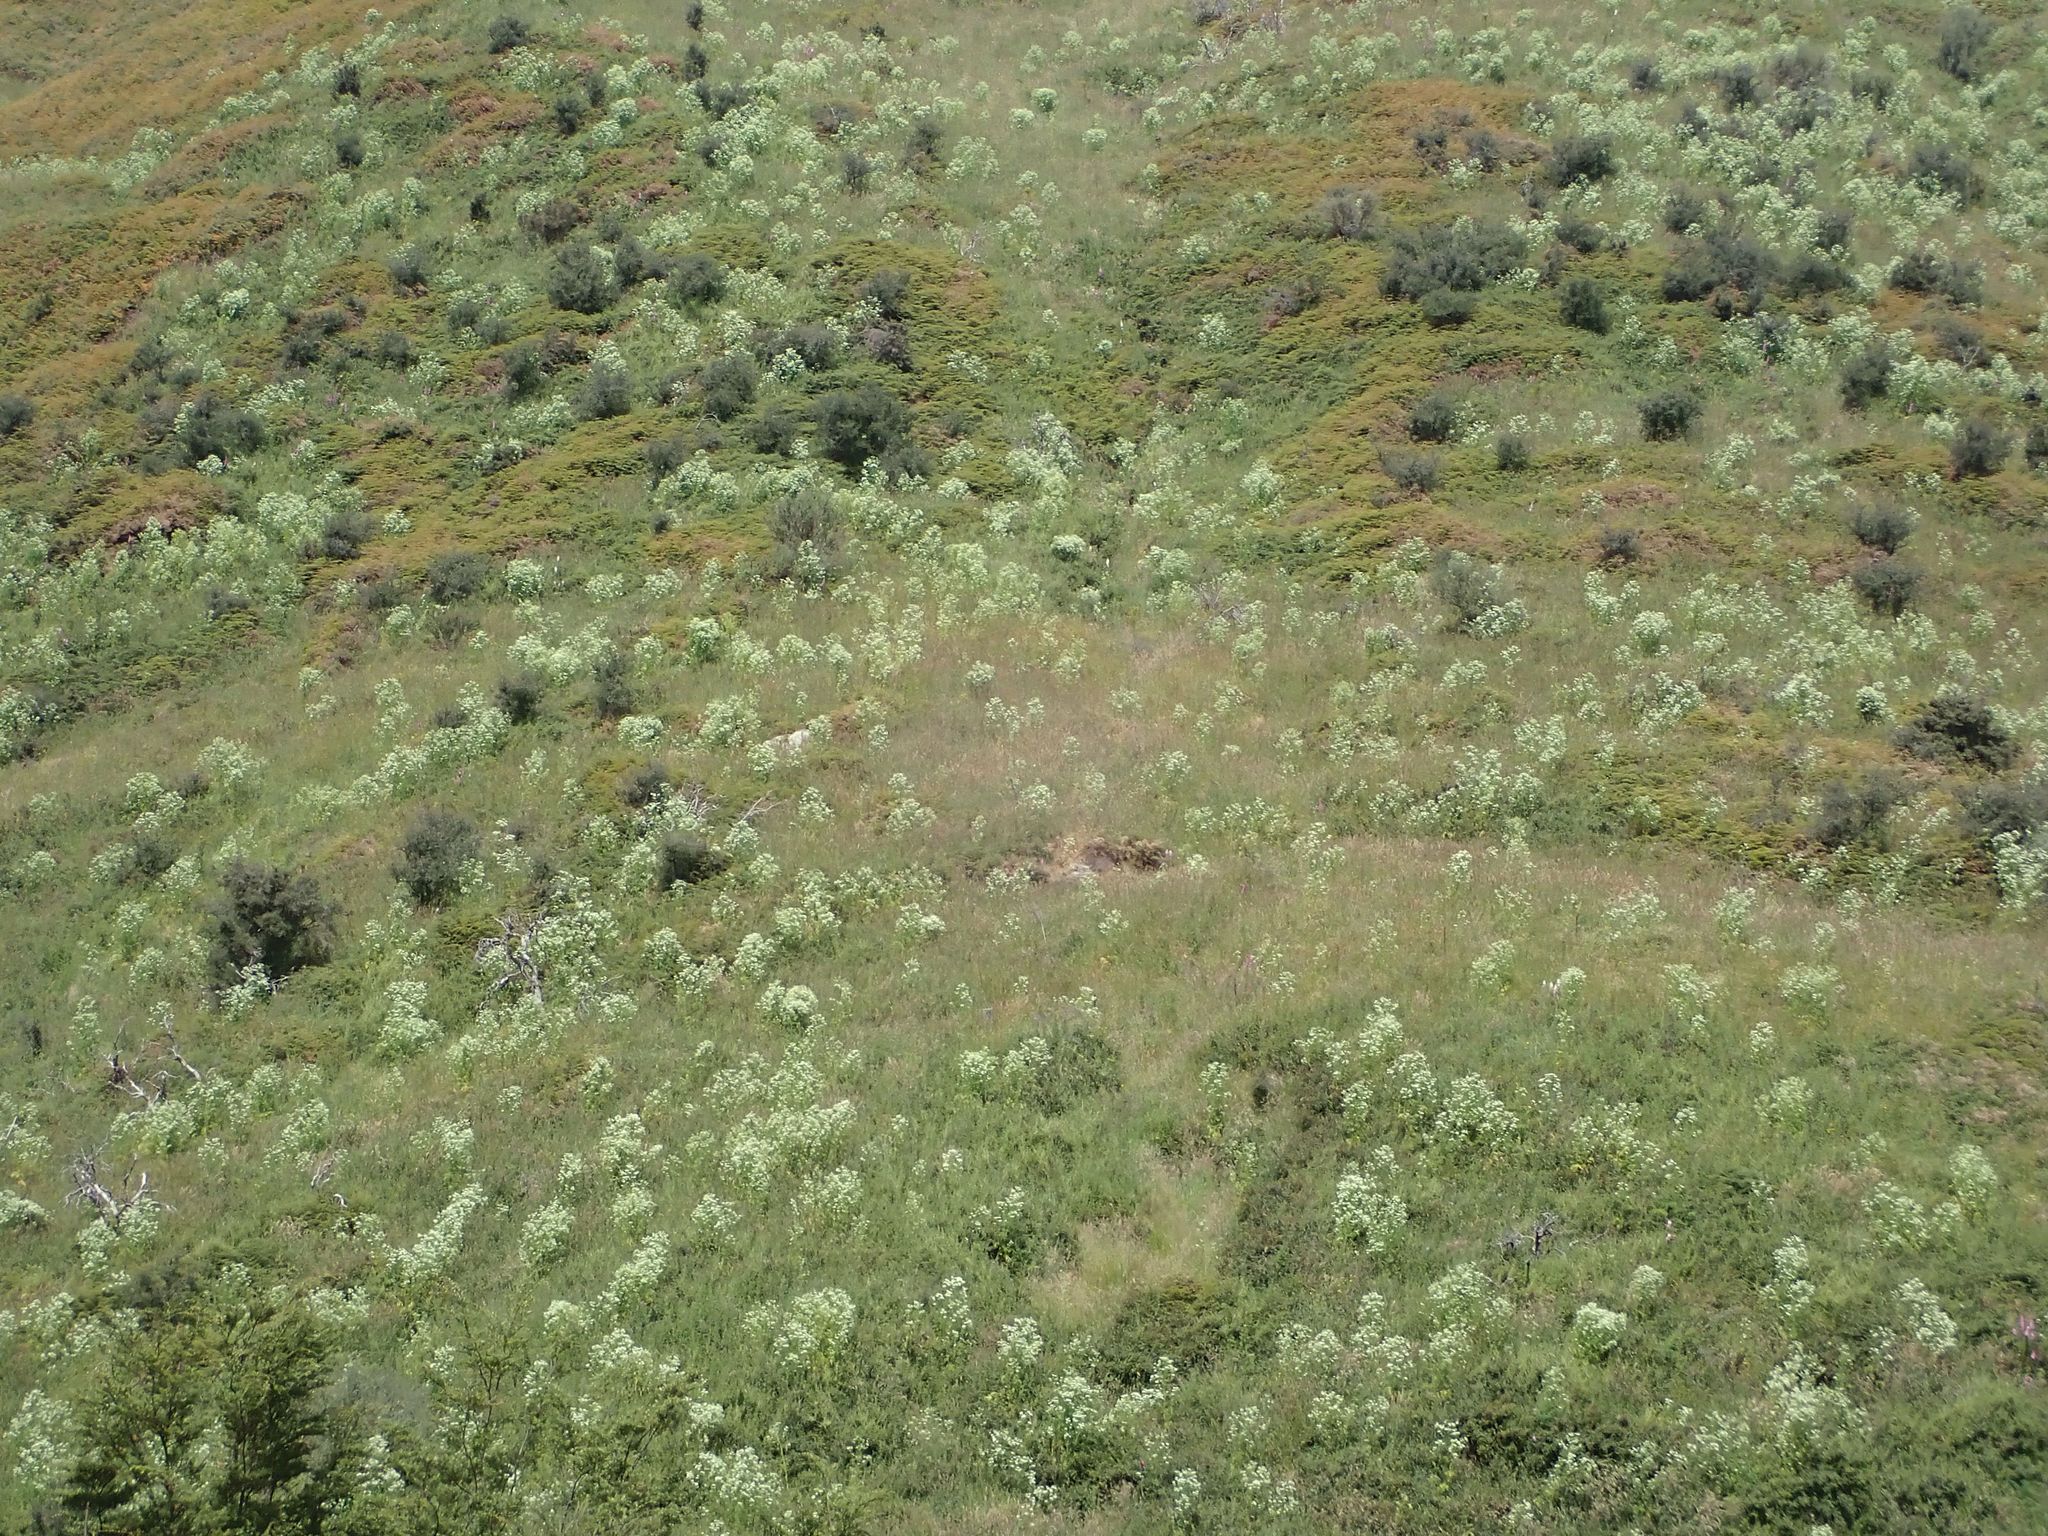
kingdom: Plantae
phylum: Tracheophyta
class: Magnoliopsida
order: Apiales
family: Apiaceae
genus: Conium
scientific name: Conium maculatum
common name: Hemlock
